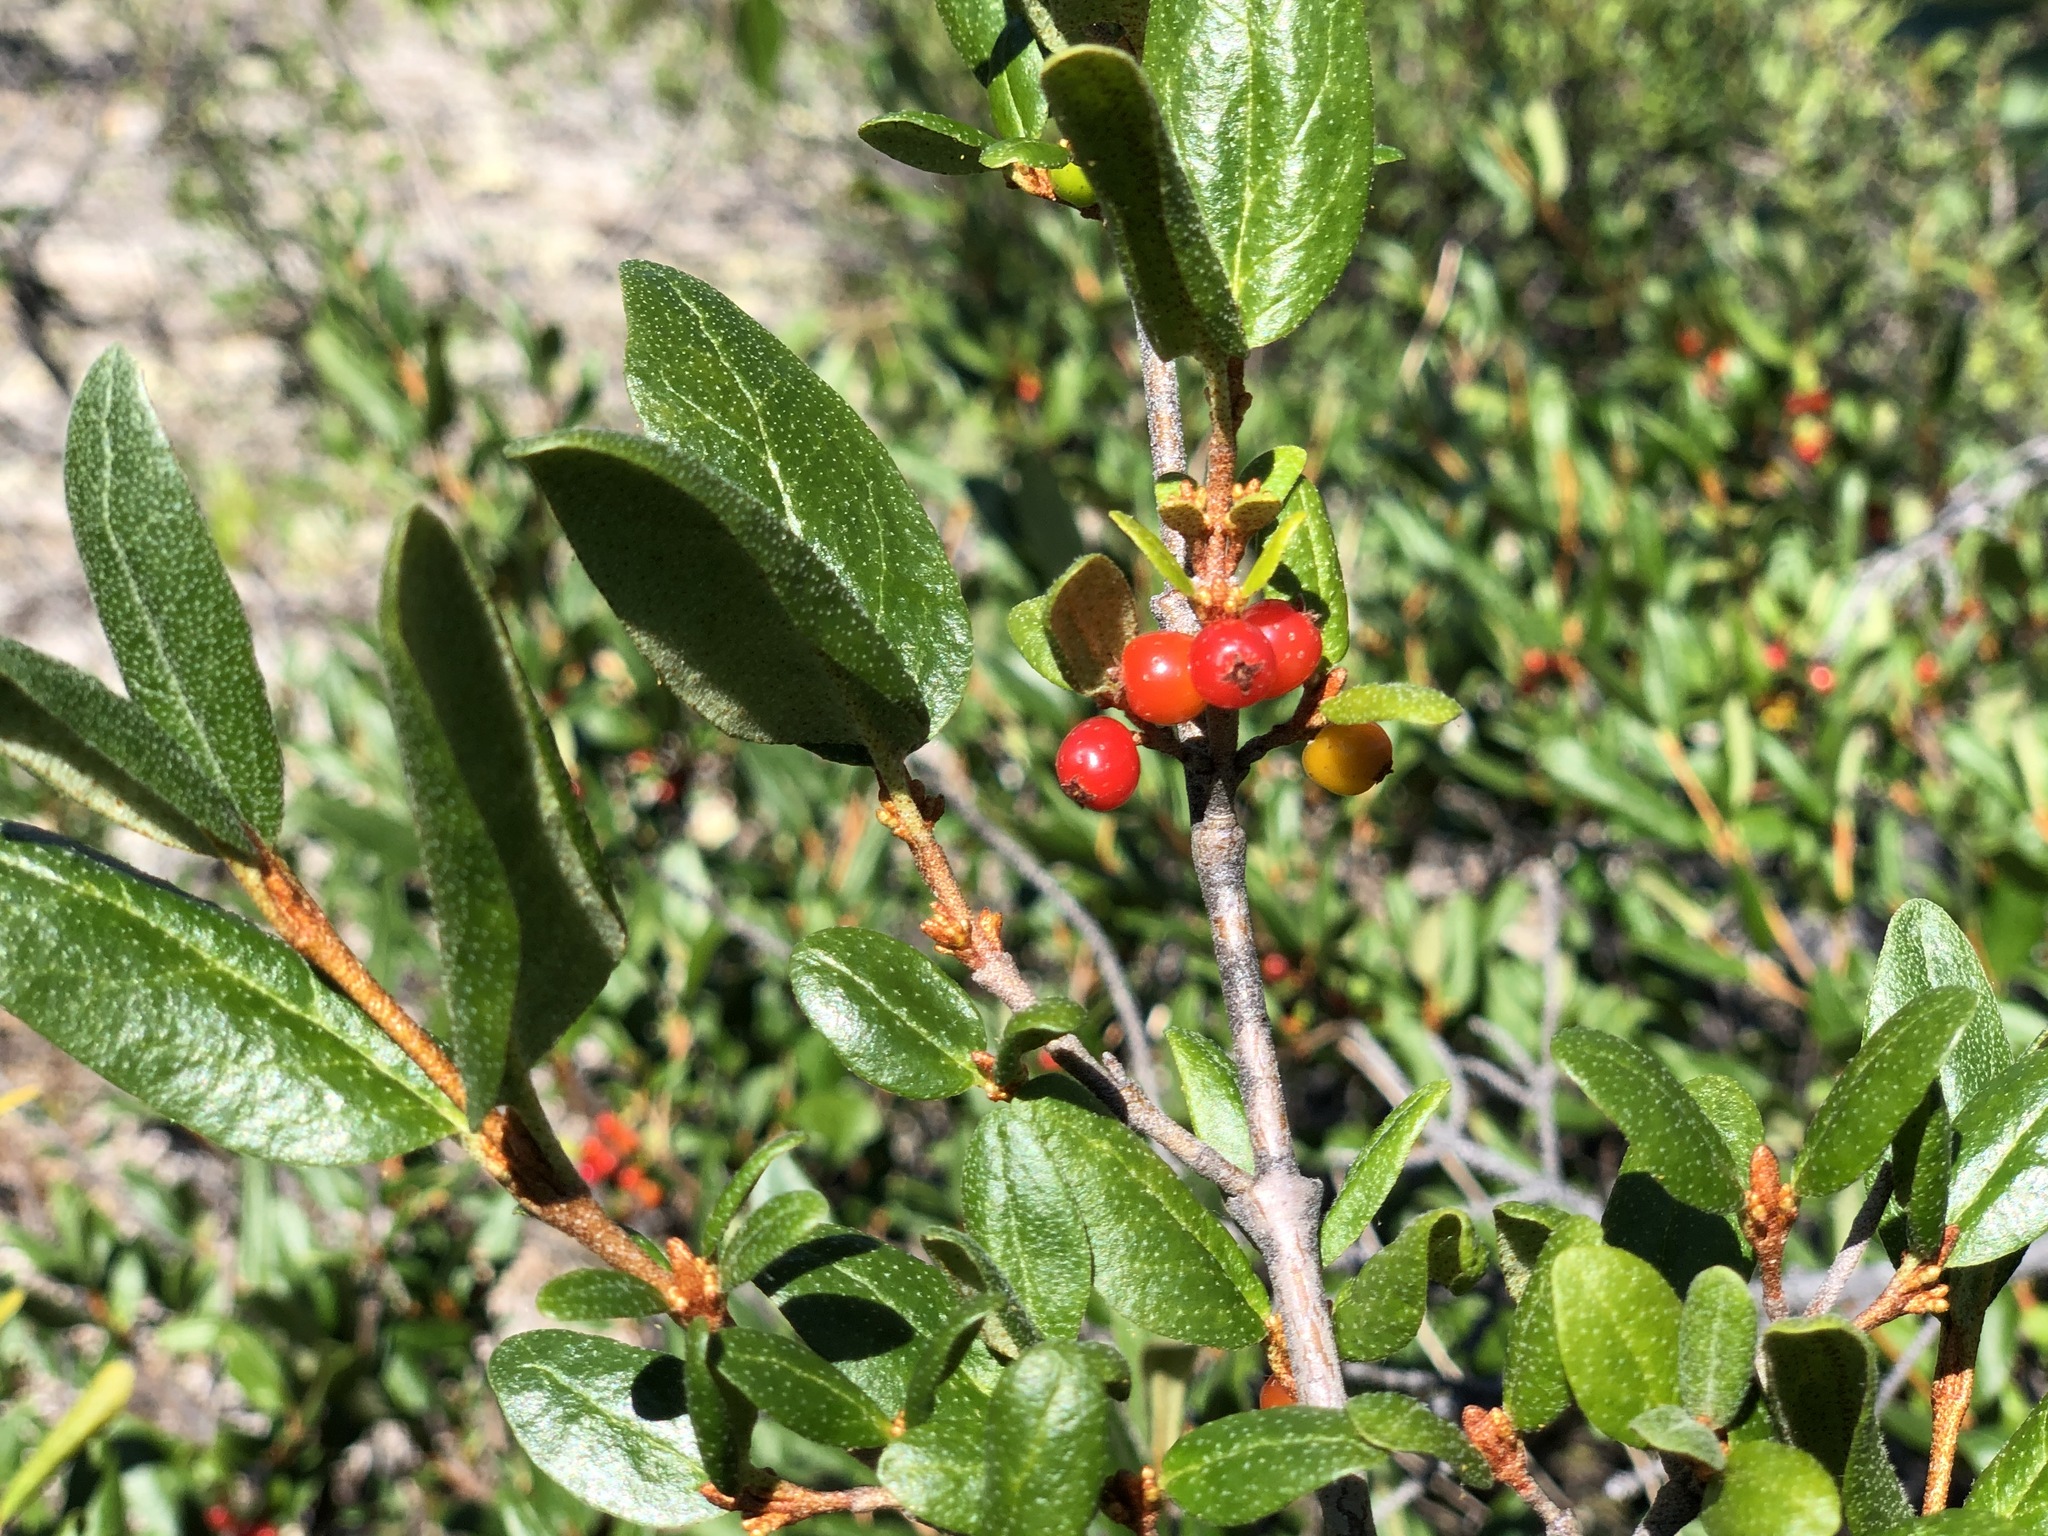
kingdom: Plantae
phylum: Tracheophyta
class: Magnoliopsida
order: Rosales
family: Elaeagnaceae
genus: Shepherdia
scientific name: Shepherdia canadensis
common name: Soapberry
